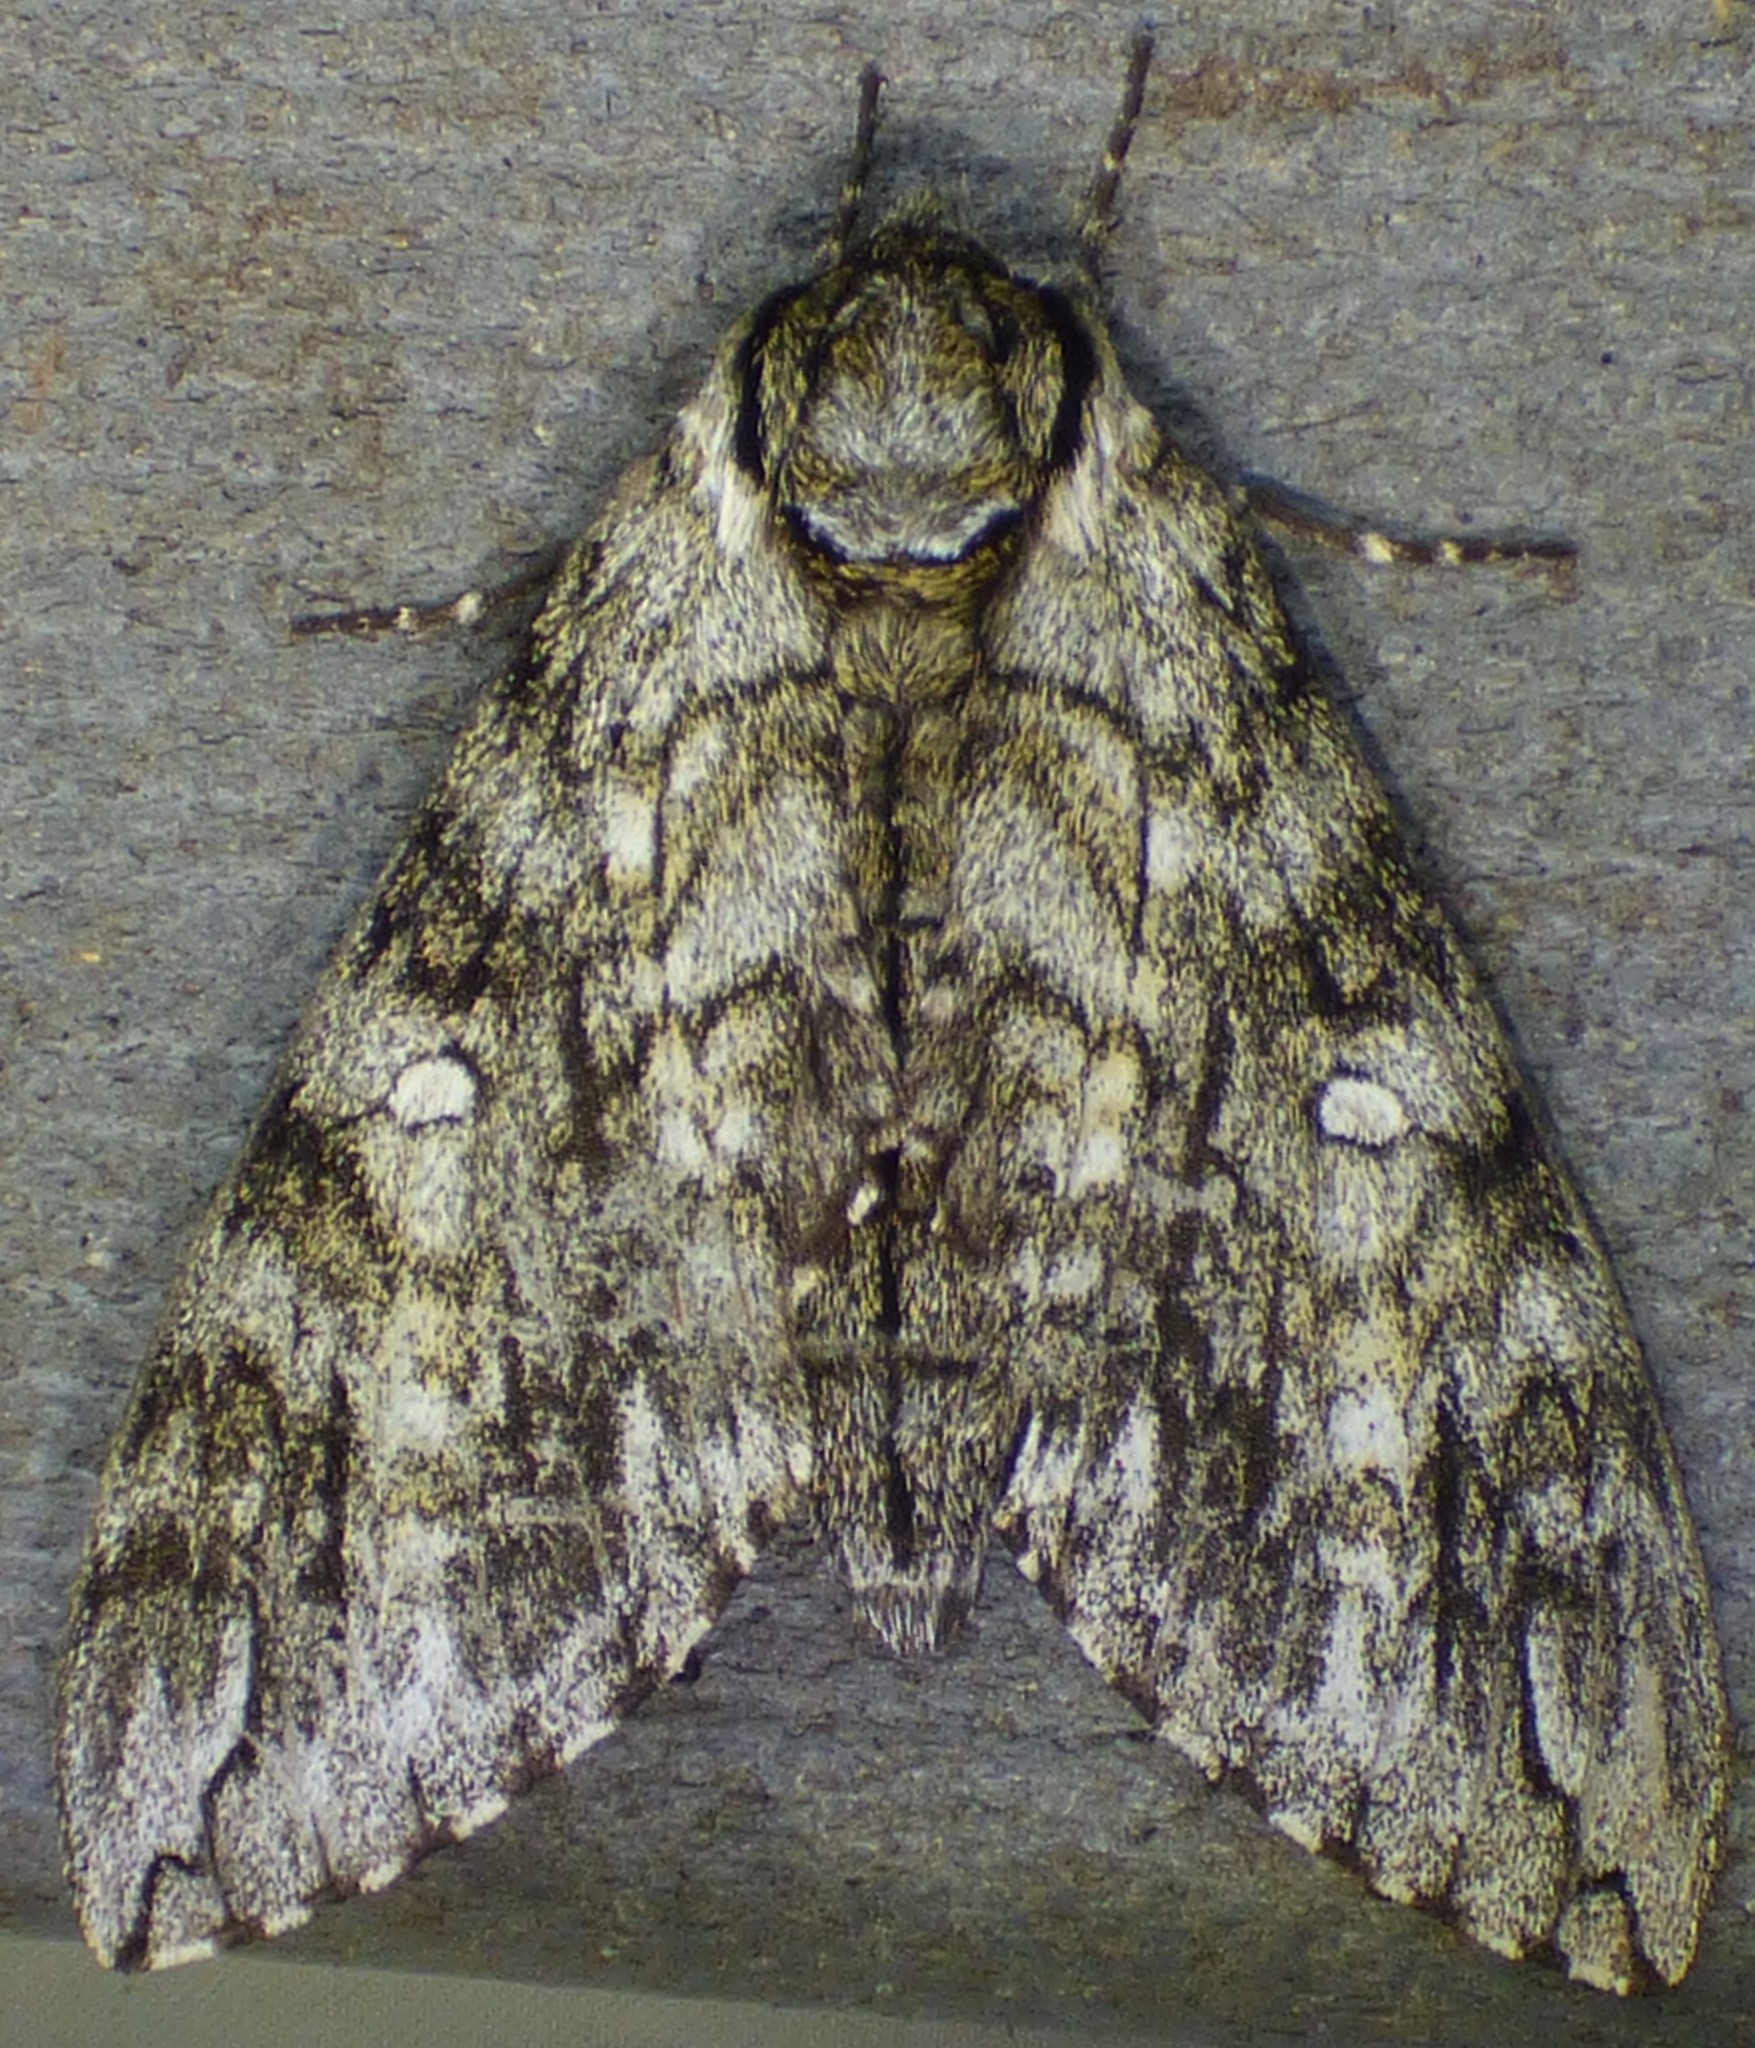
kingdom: Animalia
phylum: Arthropoda
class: Insecta
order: Lepidoptera
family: Sphingidae
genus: Ceratomia
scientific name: Ceratomia undulosa
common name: Waved sphinx
